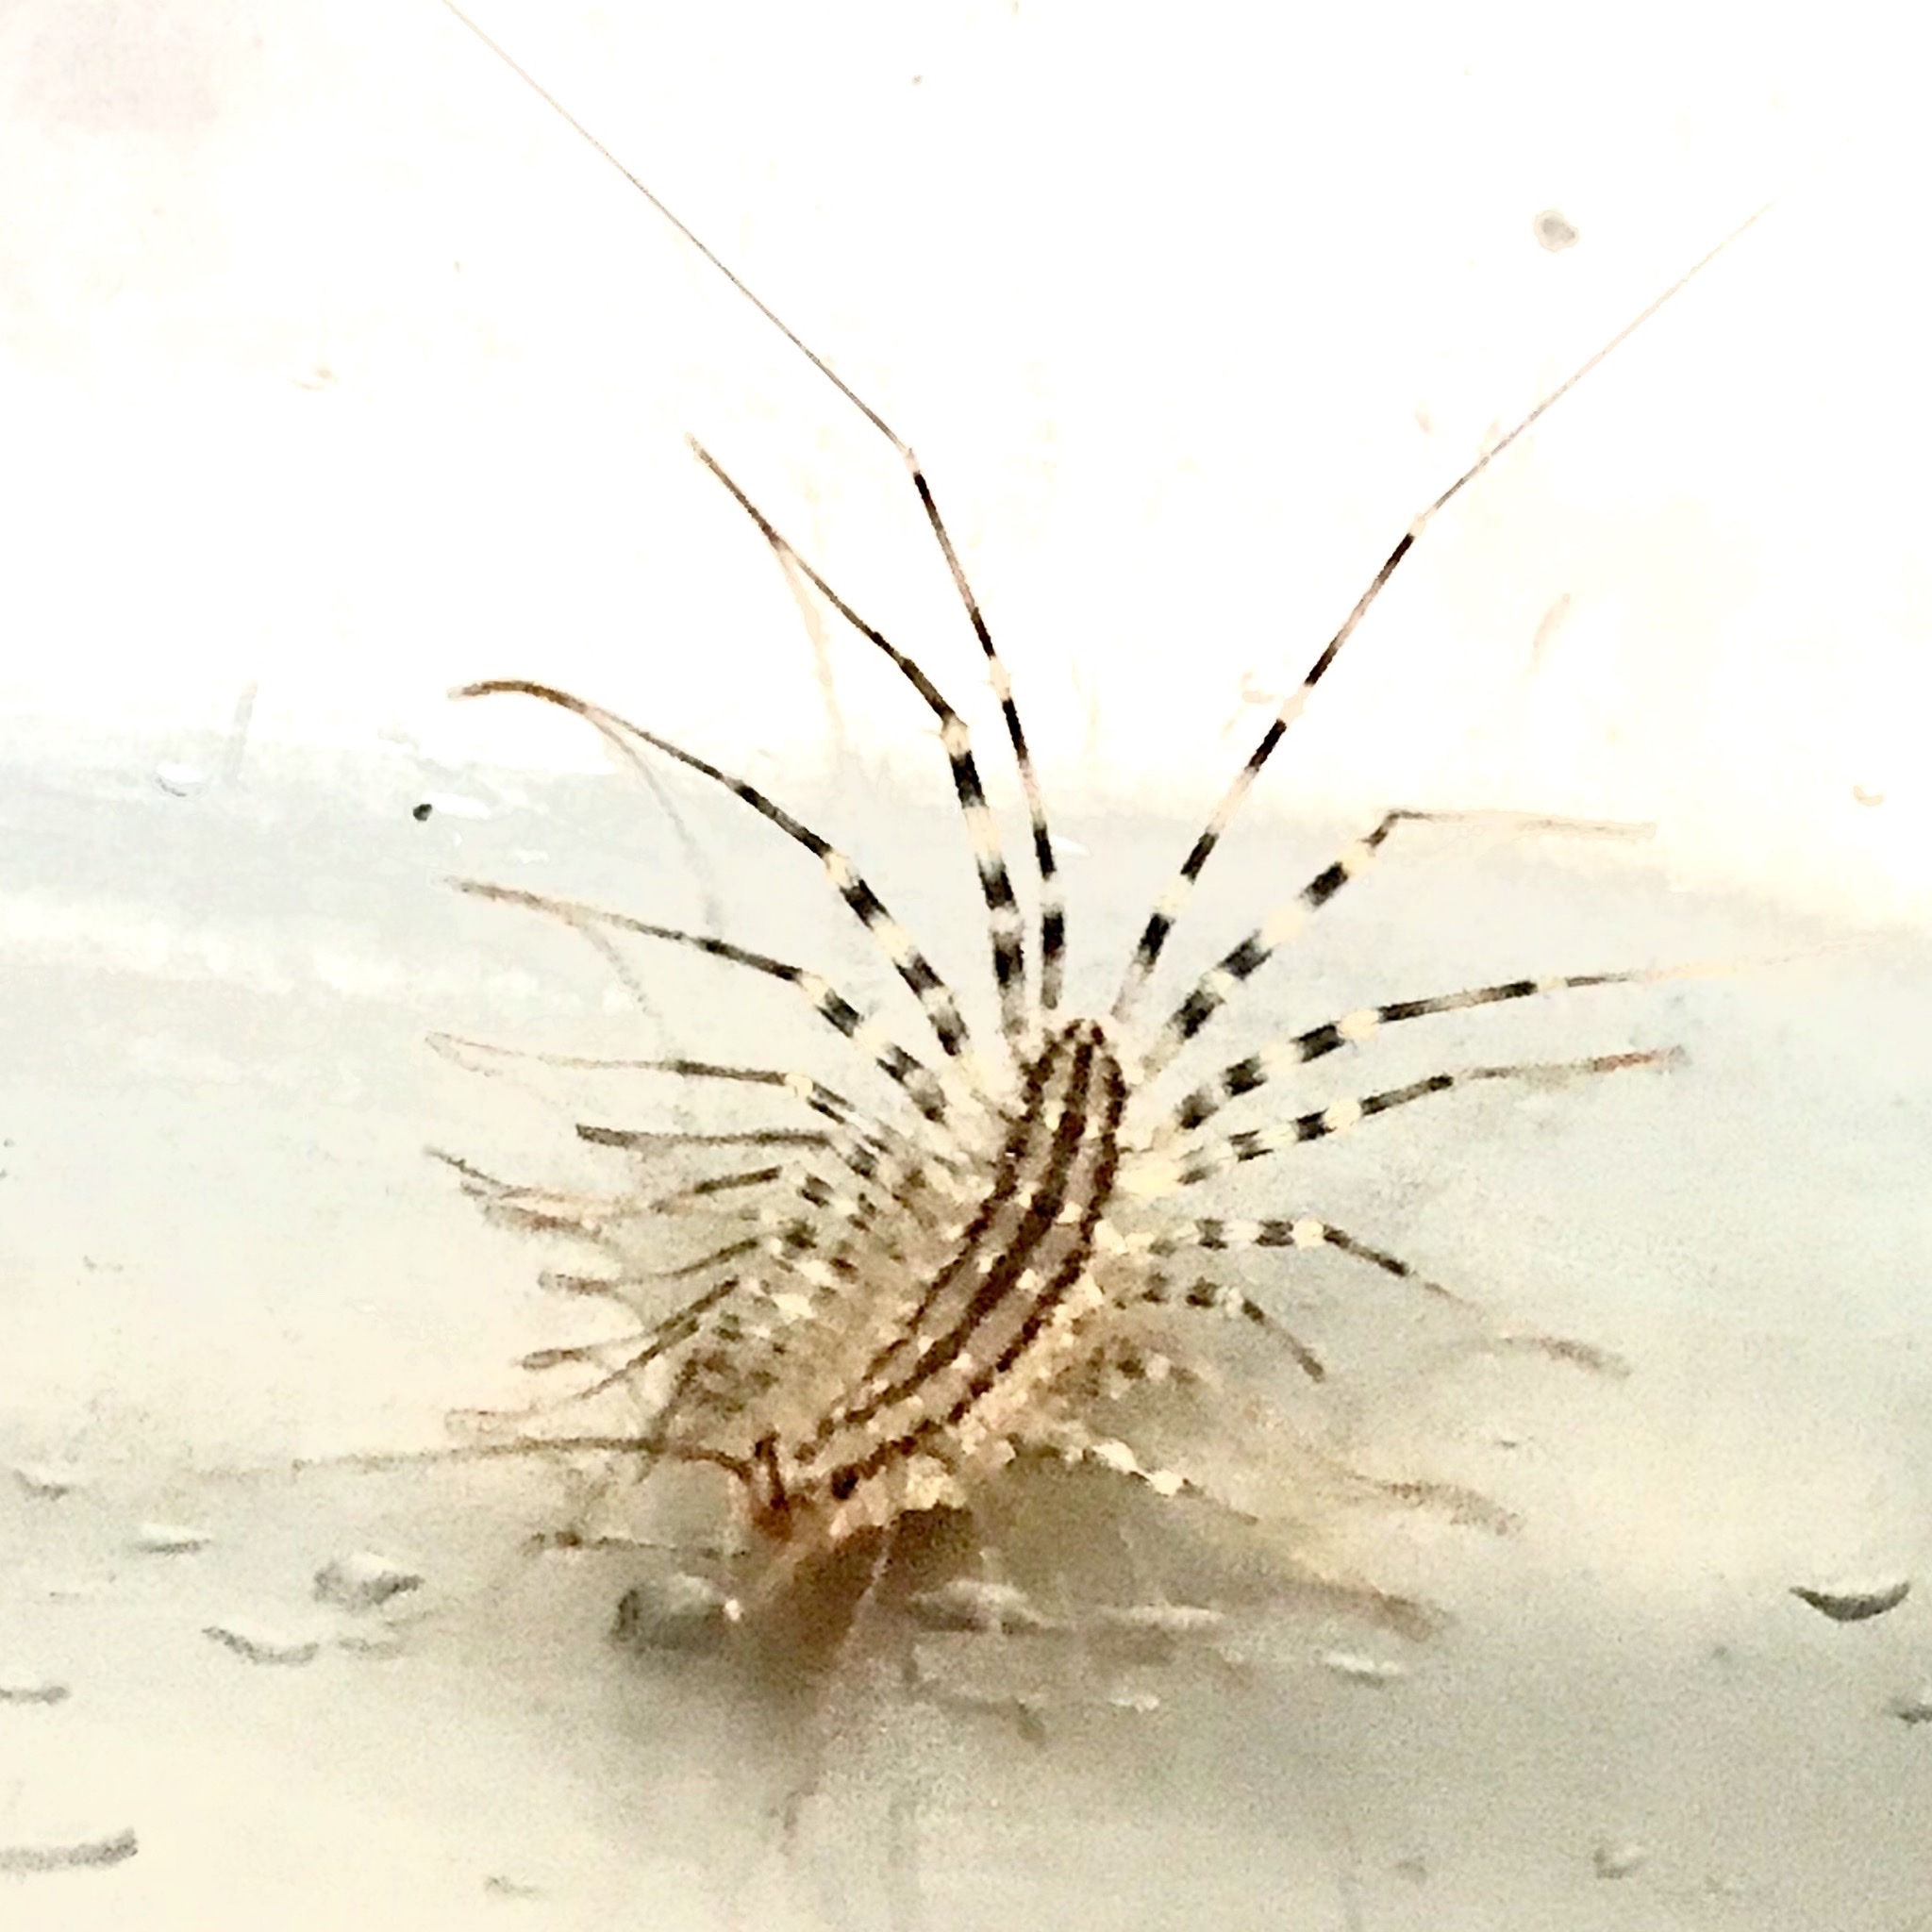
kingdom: Animalia
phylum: Arthropoda
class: Chilopoda
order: Scutigeromorpha
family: Scutigeridae
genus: Scutigera
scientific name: Scutigera coleoptrata
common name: House centipede
